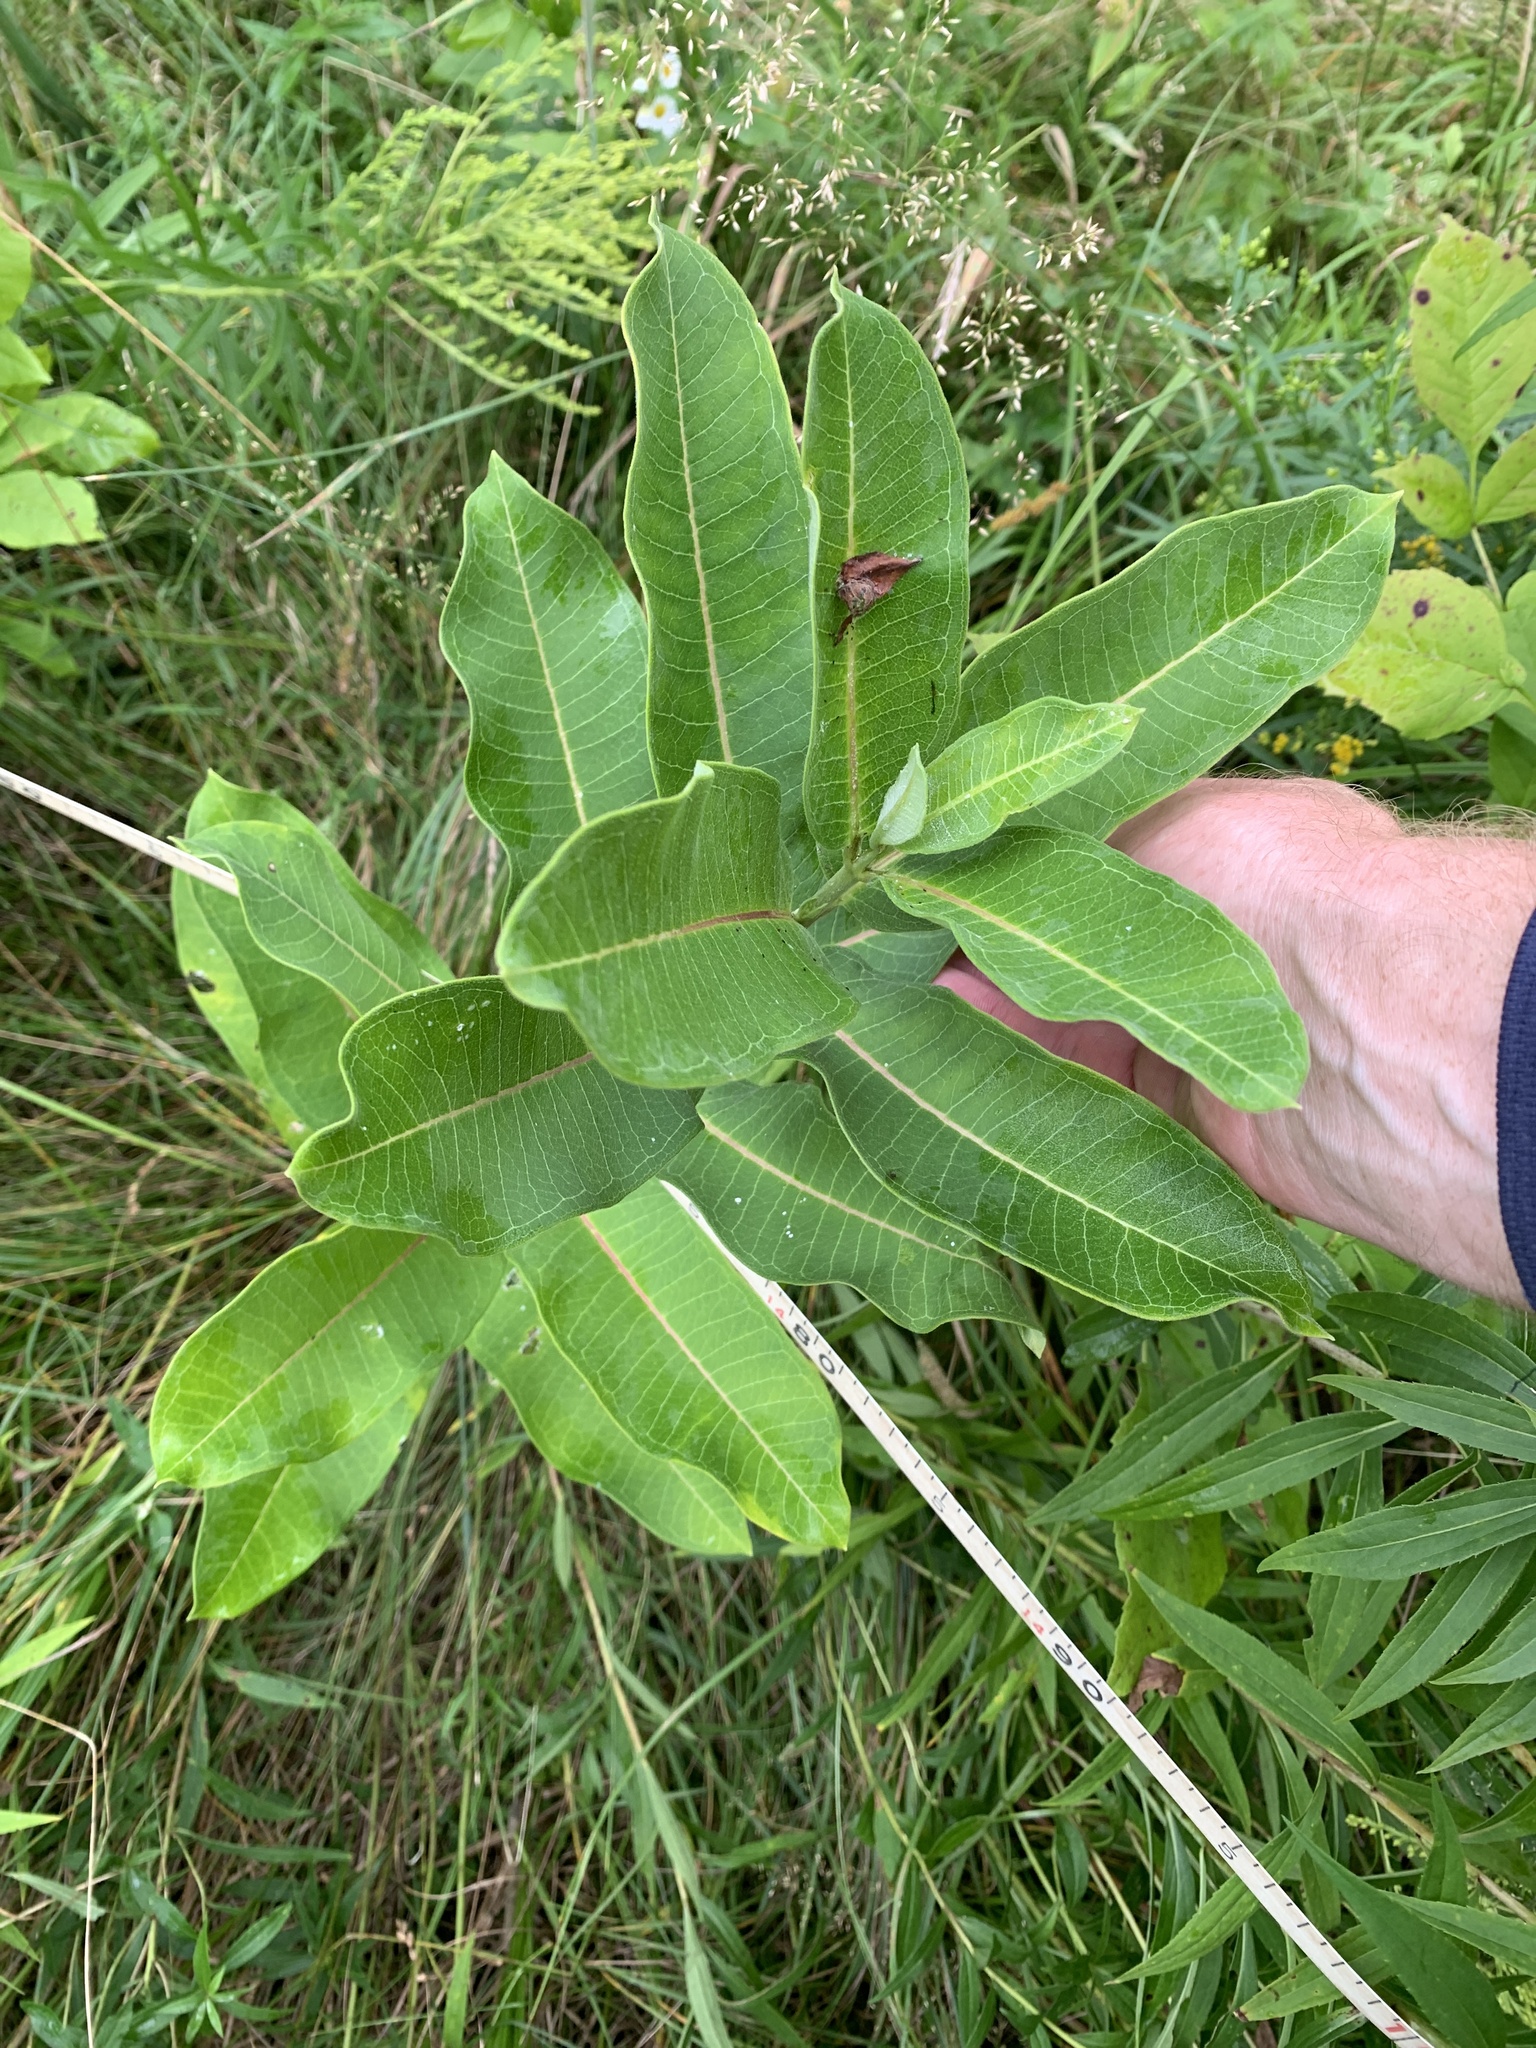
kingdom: Plantae
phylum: Tracheophyta
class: Magnoliopsida
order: Gentianales
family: Apocynaceae
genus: Asclepias
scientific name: Asclepias syriaca
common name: Common milkweed
